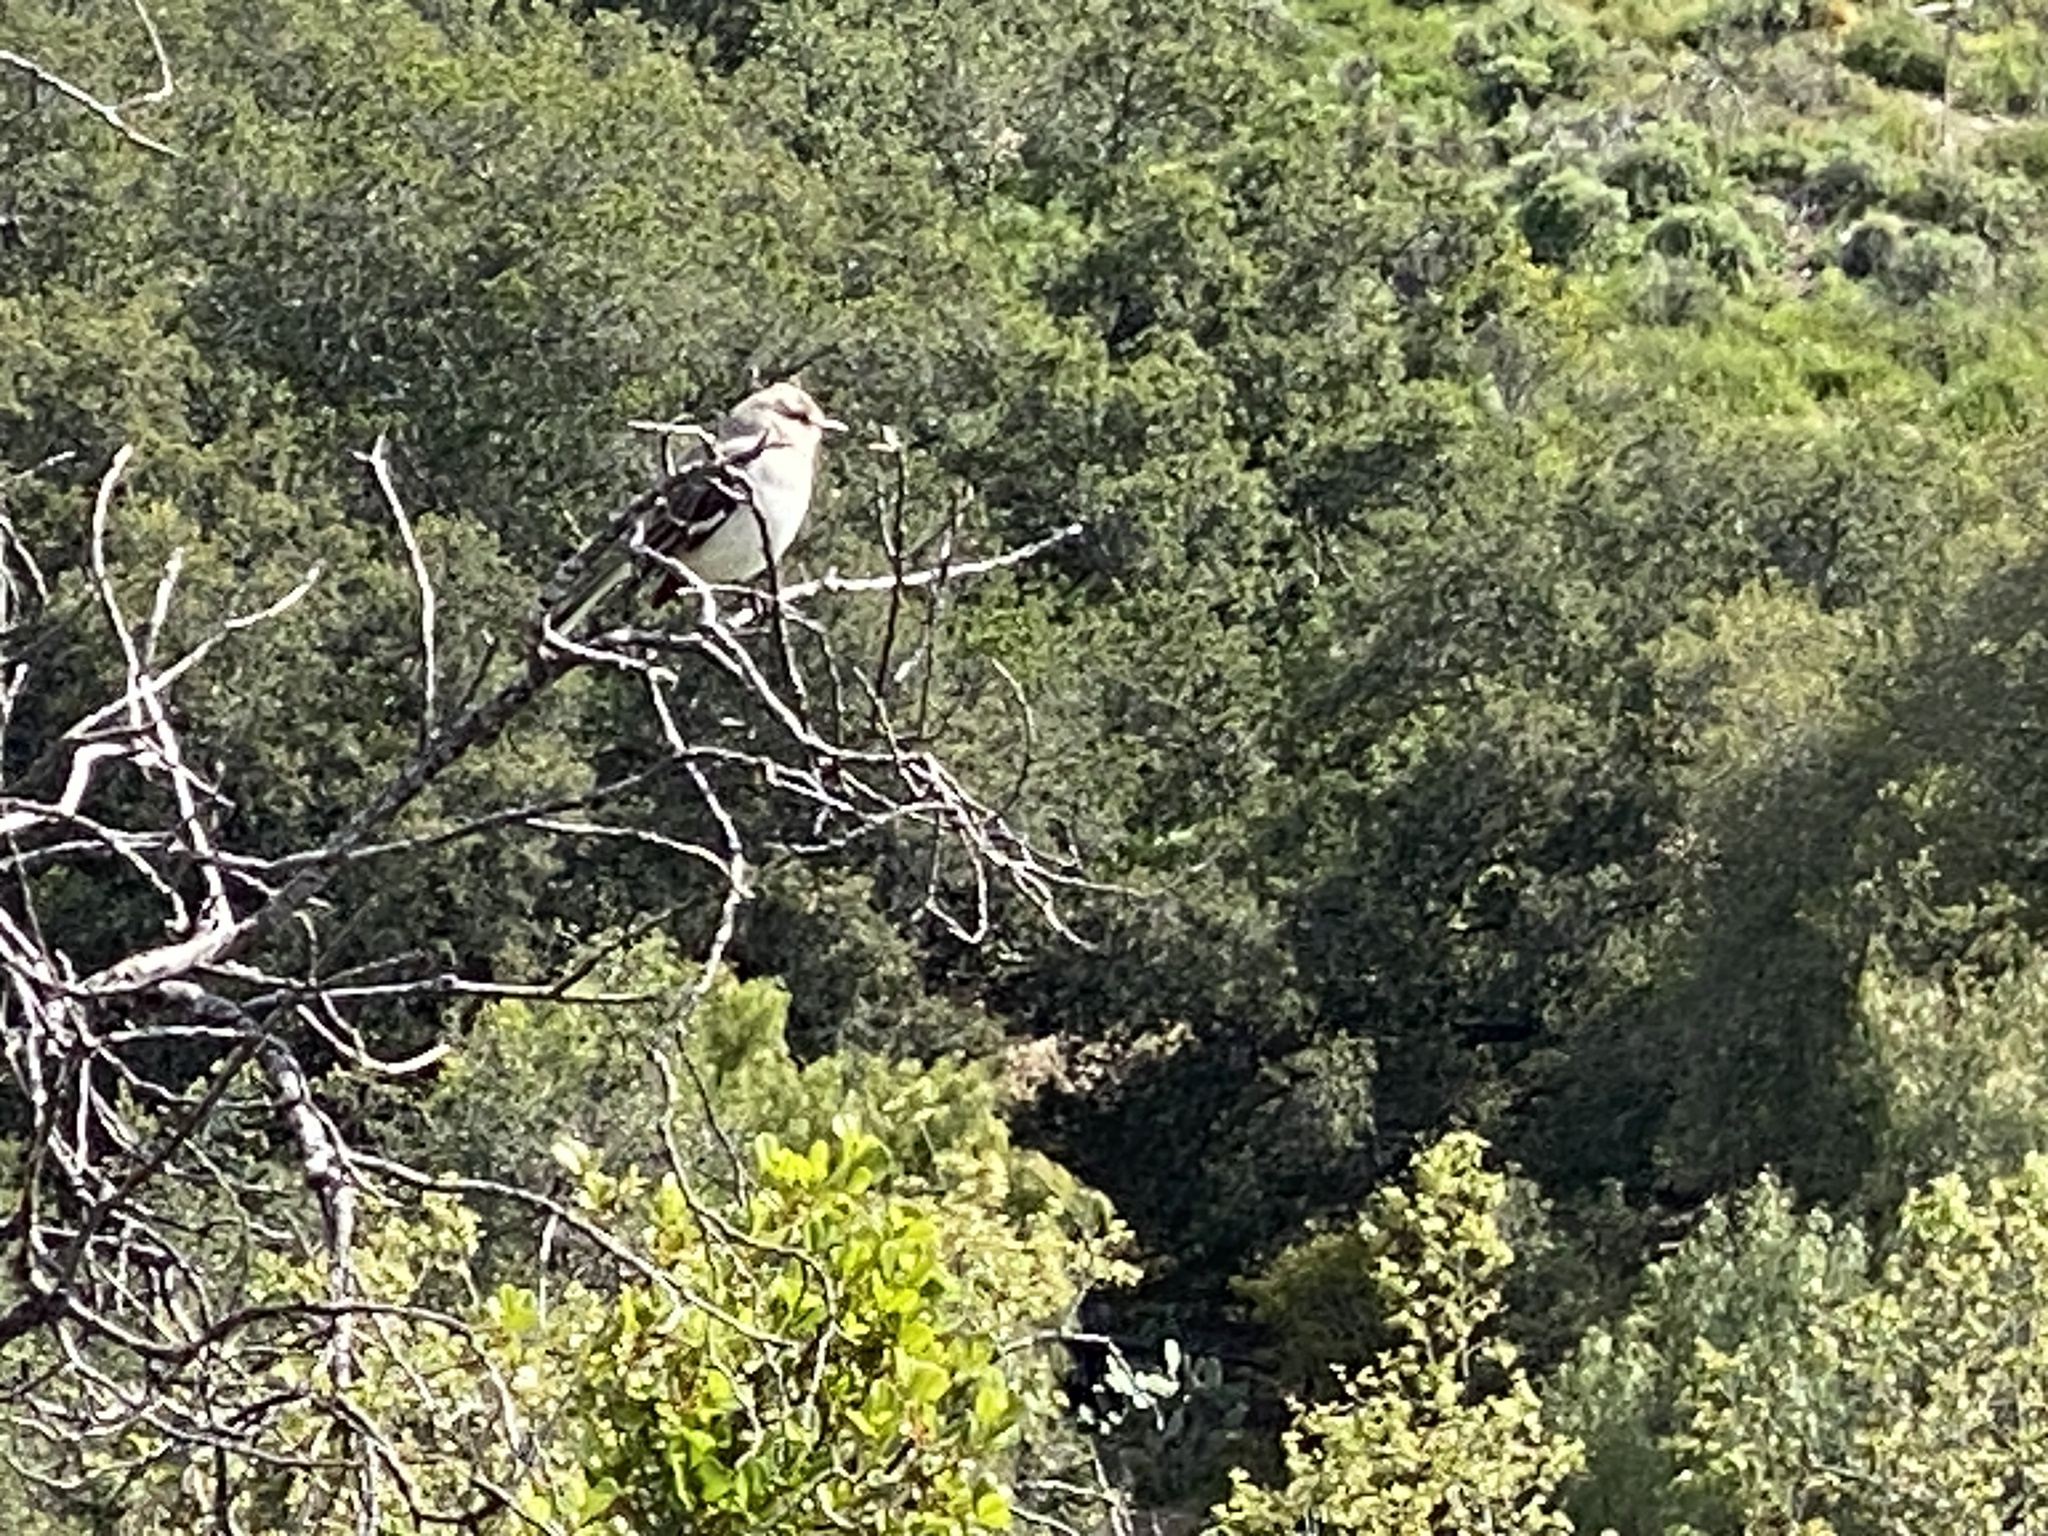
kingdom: Animalia
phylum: Chordata
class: Aves
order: Passeriformes
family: Mimidae
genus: Mimus
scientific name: Mimus polyglottos
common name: Northern mockingbird
